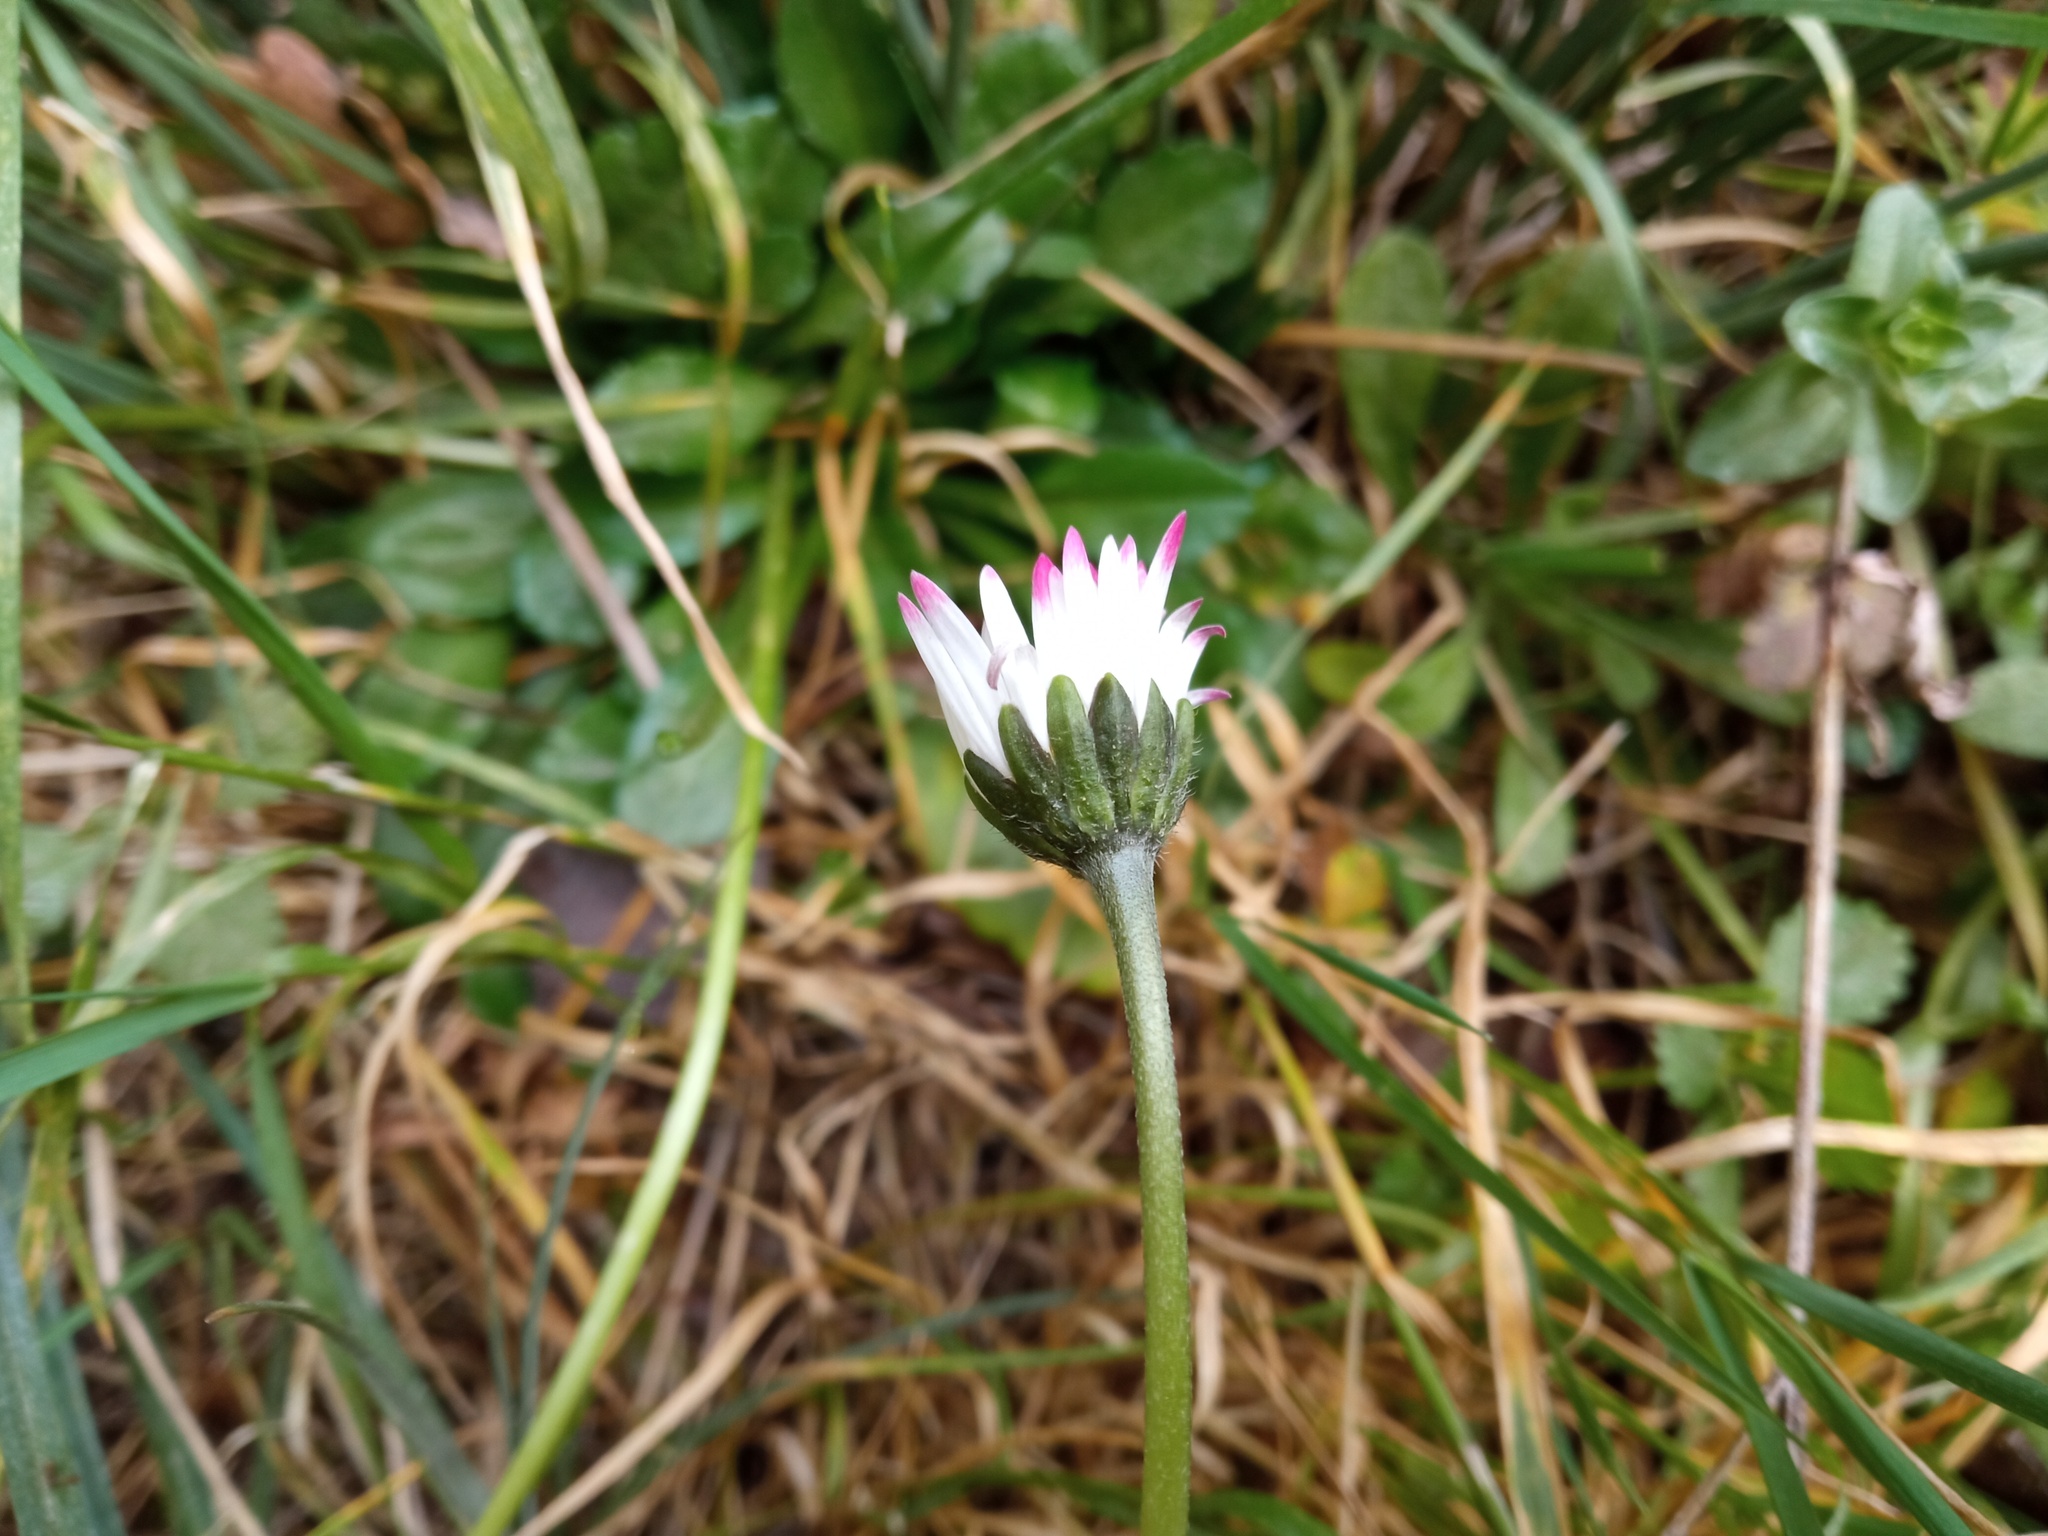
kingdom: Plantae
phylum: Tracheophyta
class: Magnoliopsida
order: Asterales
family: Asteraceae
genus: Bellis
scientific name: Bellis perennis
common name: Lawndaisy
